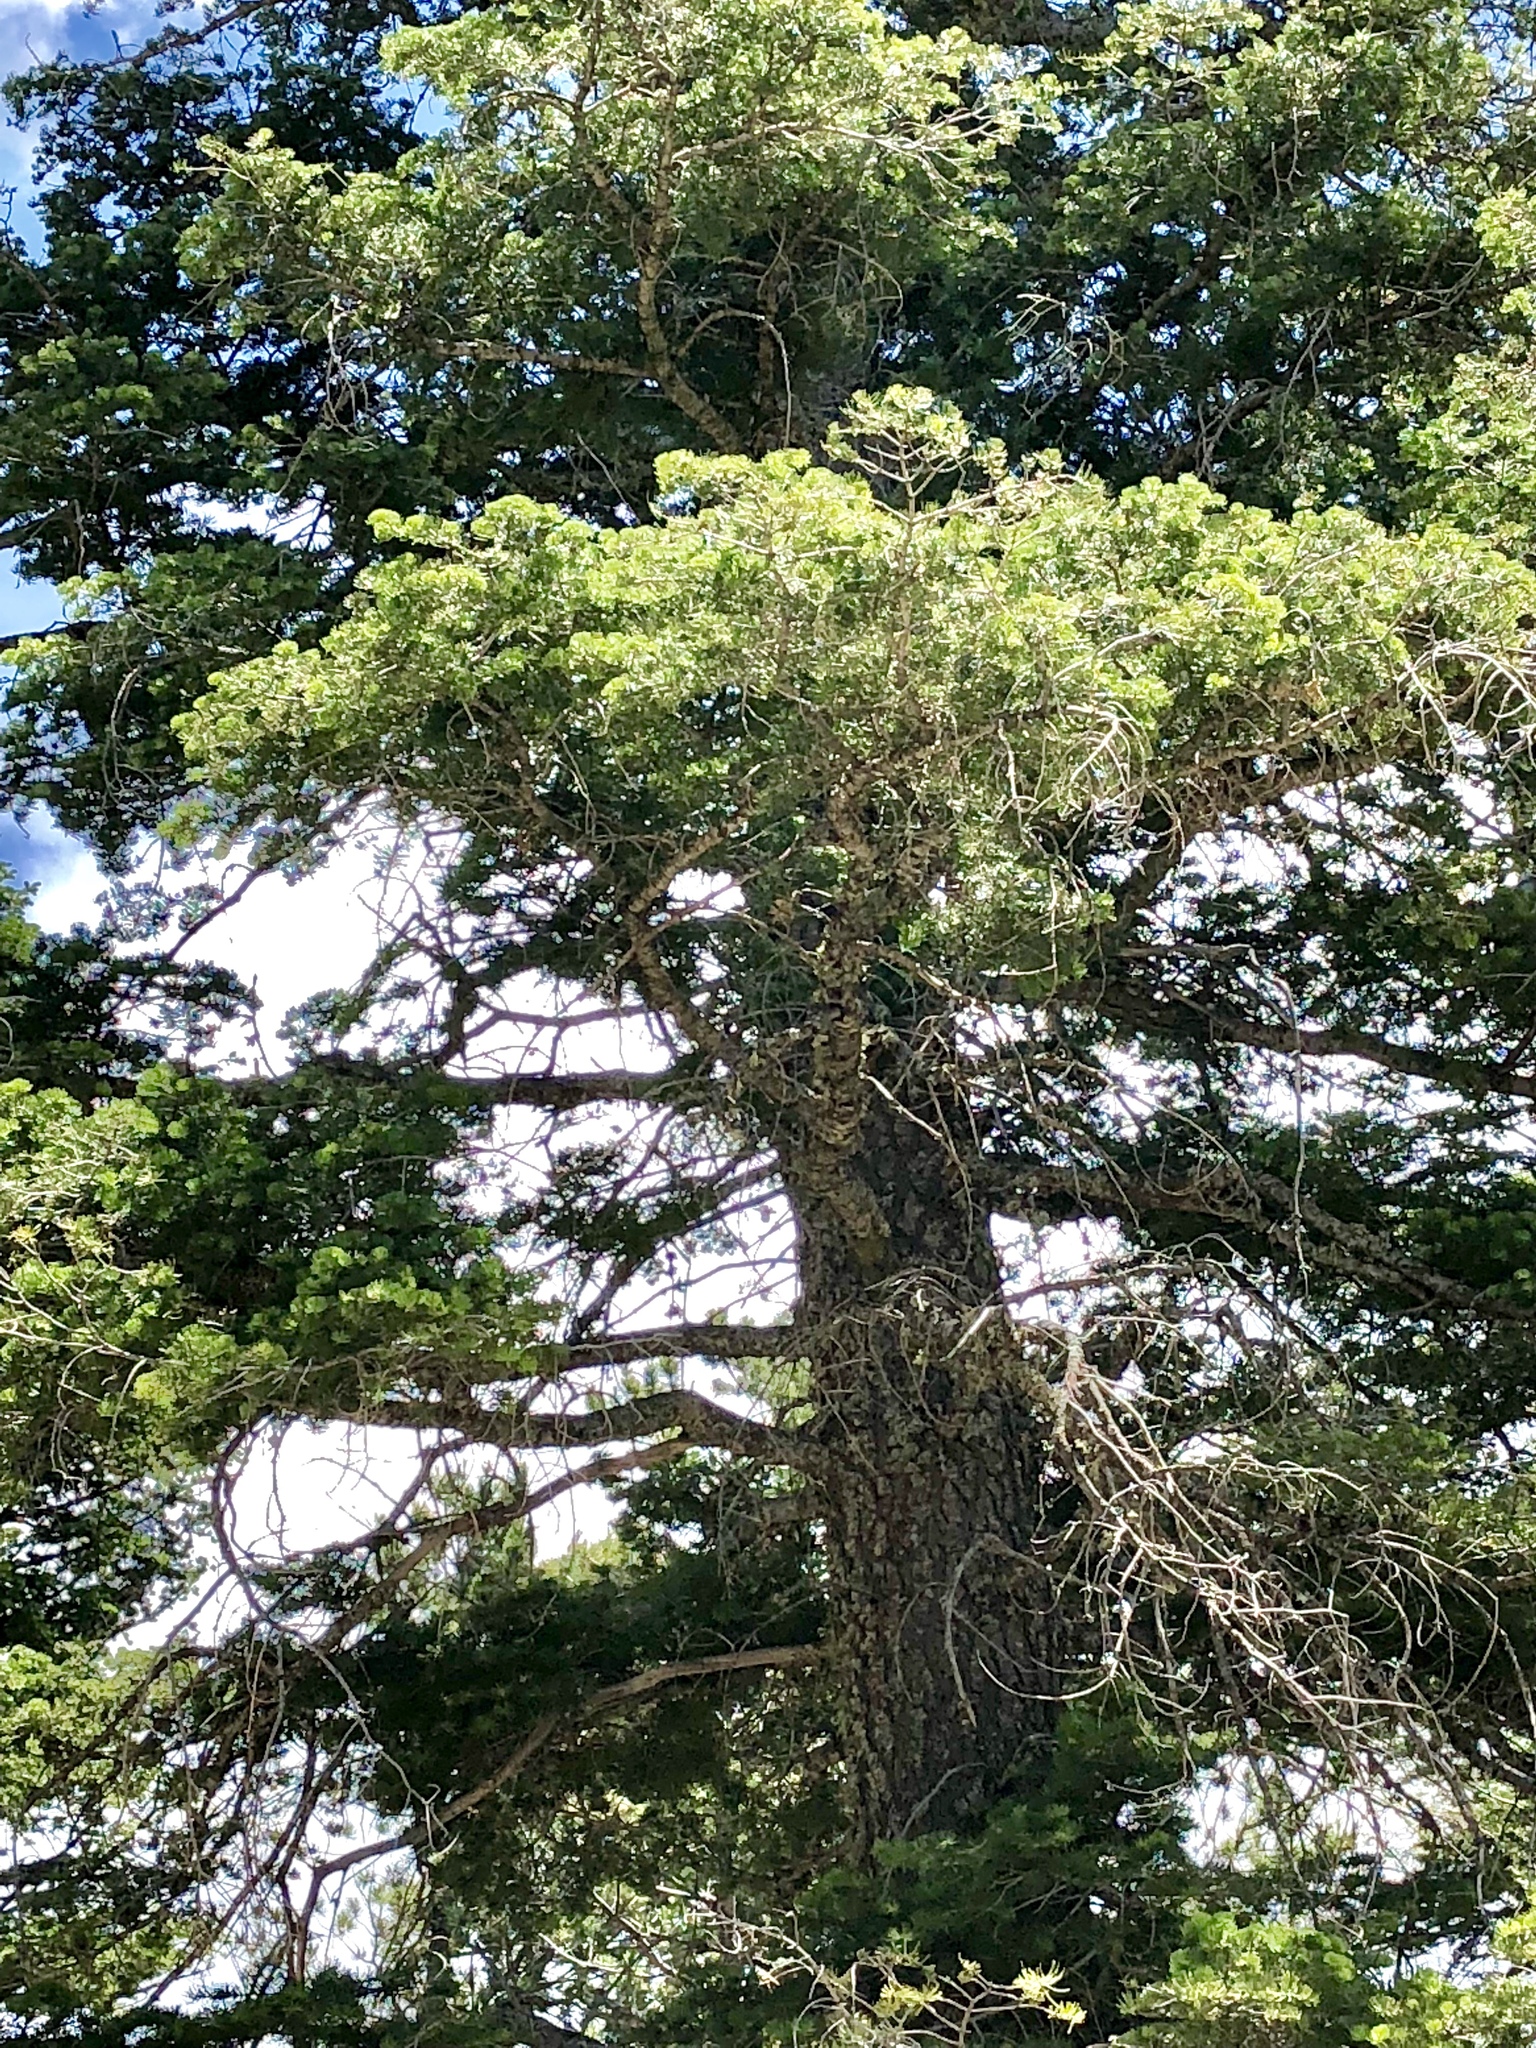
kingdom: Plantae
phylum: Tracheophyta
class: Pinopsida
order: Pinales
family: Pinaceae
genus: Pseudotsuga
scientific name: Pseudotsuga menziesii
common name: Douglas fir
